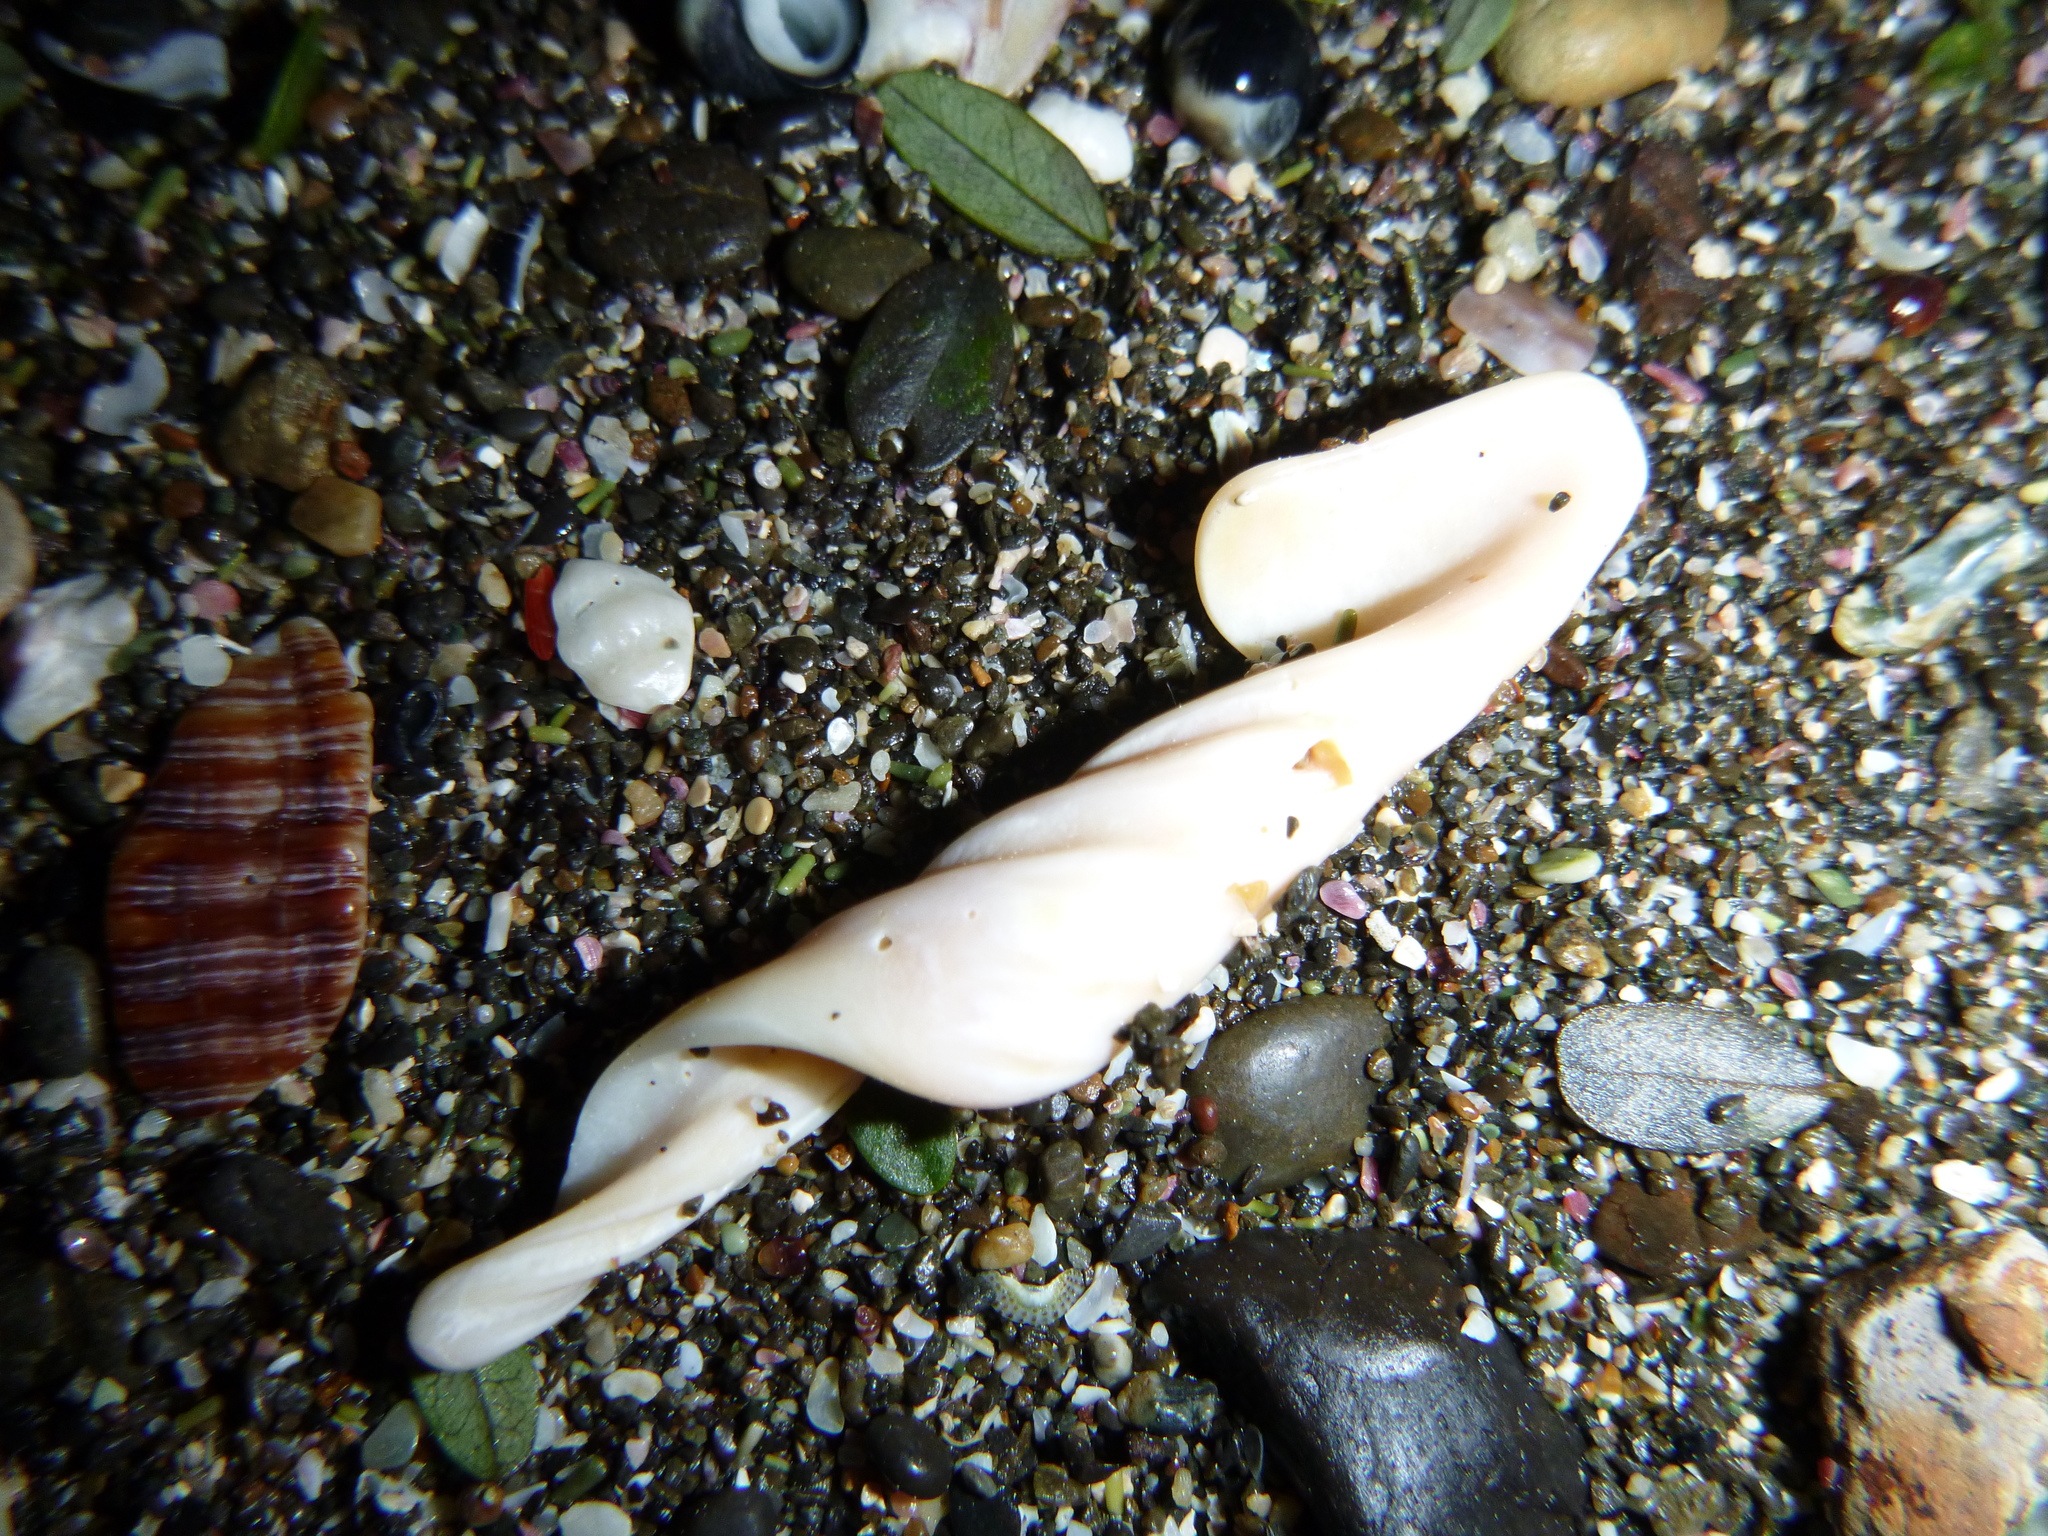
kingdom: Animalia
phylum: Mollusca
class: Gastropoda
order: Neogastropoda
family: Volutidae
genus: Alcithoe
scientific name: Alcithoe arabica
